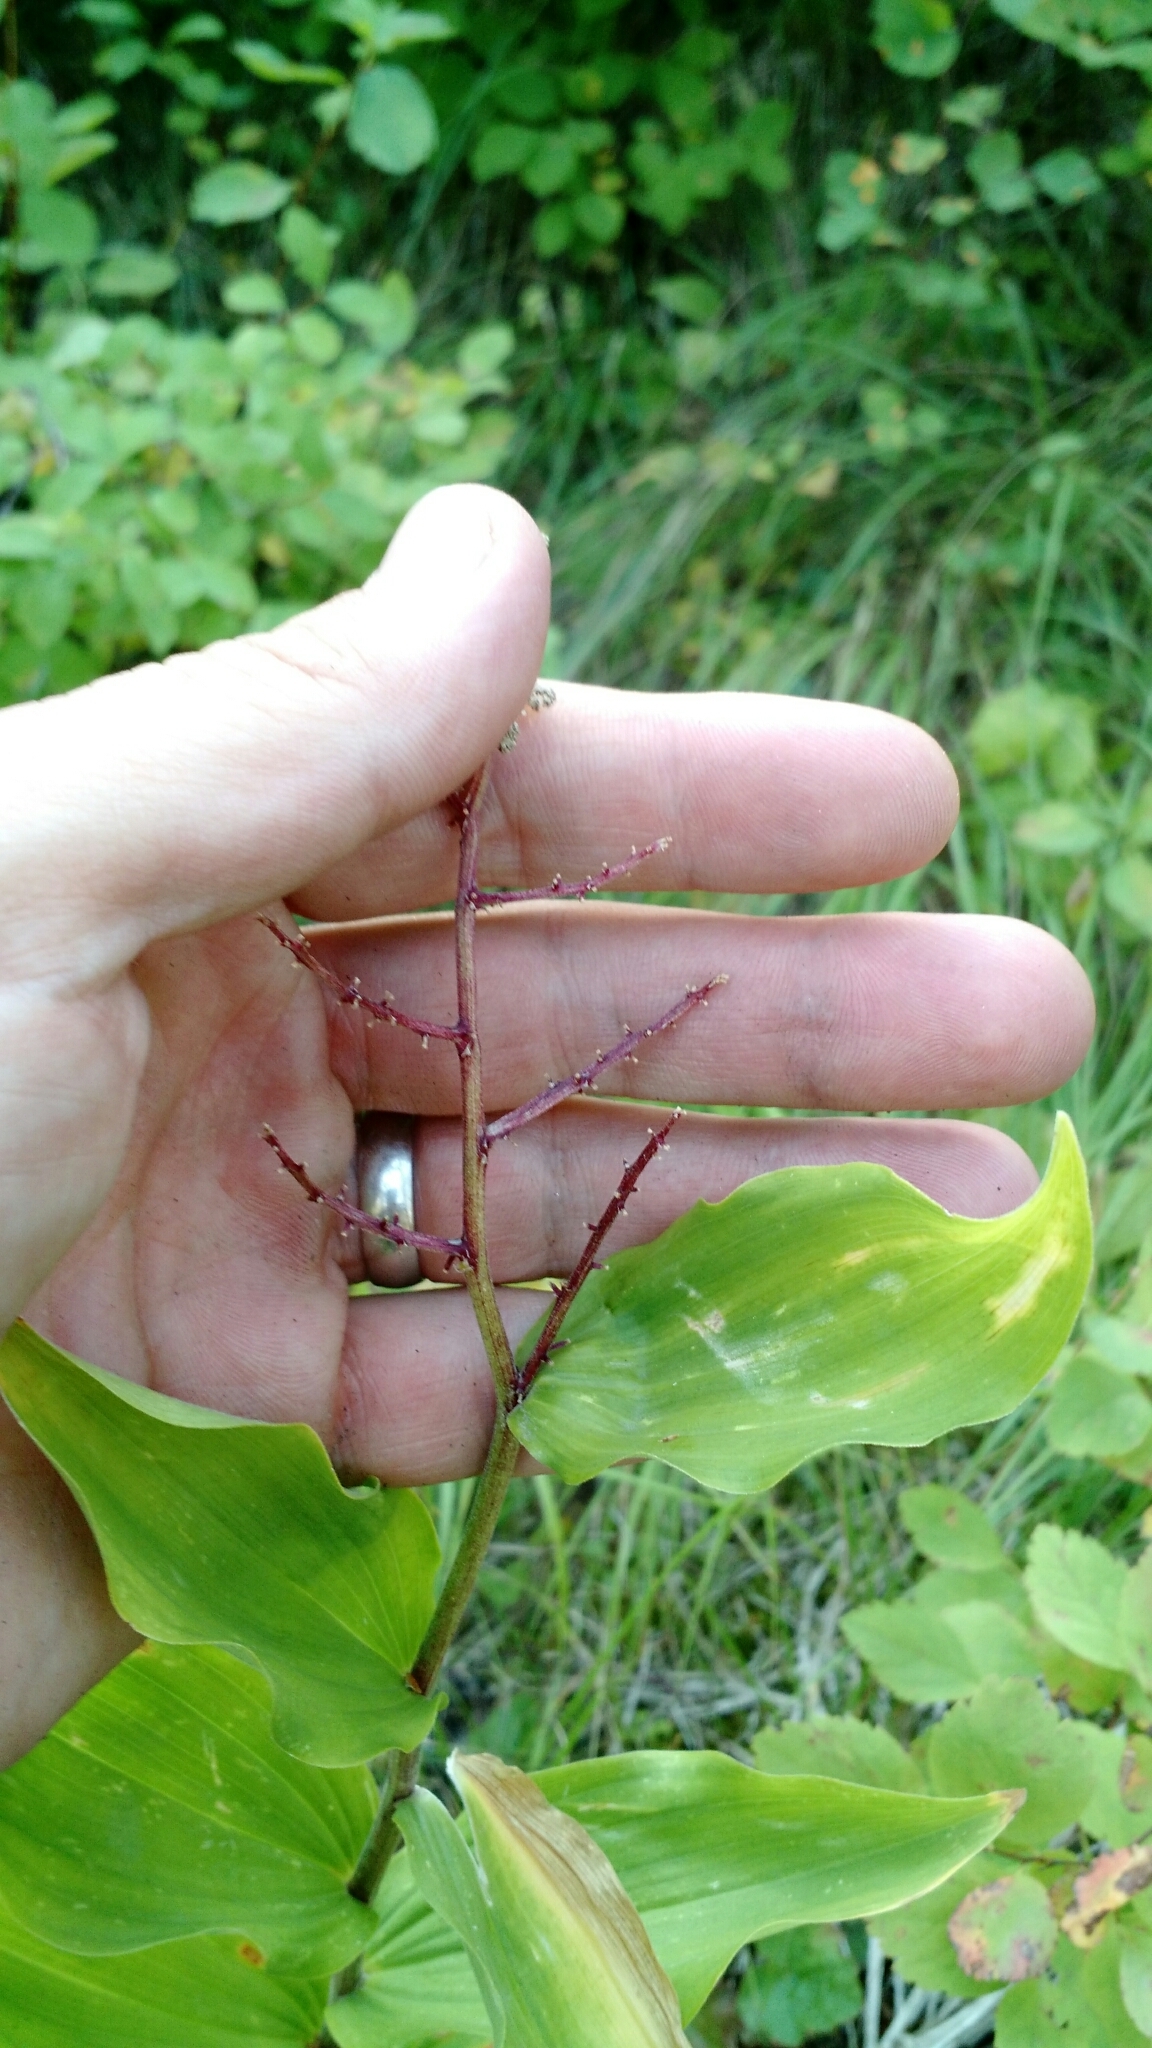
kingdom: Plantae
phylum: Tracheophyta
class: Liliopsida
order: Asparagales
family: Asparagaceae
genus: Maianthemum
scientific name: Maianthemum racemosum
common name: False spikenard
